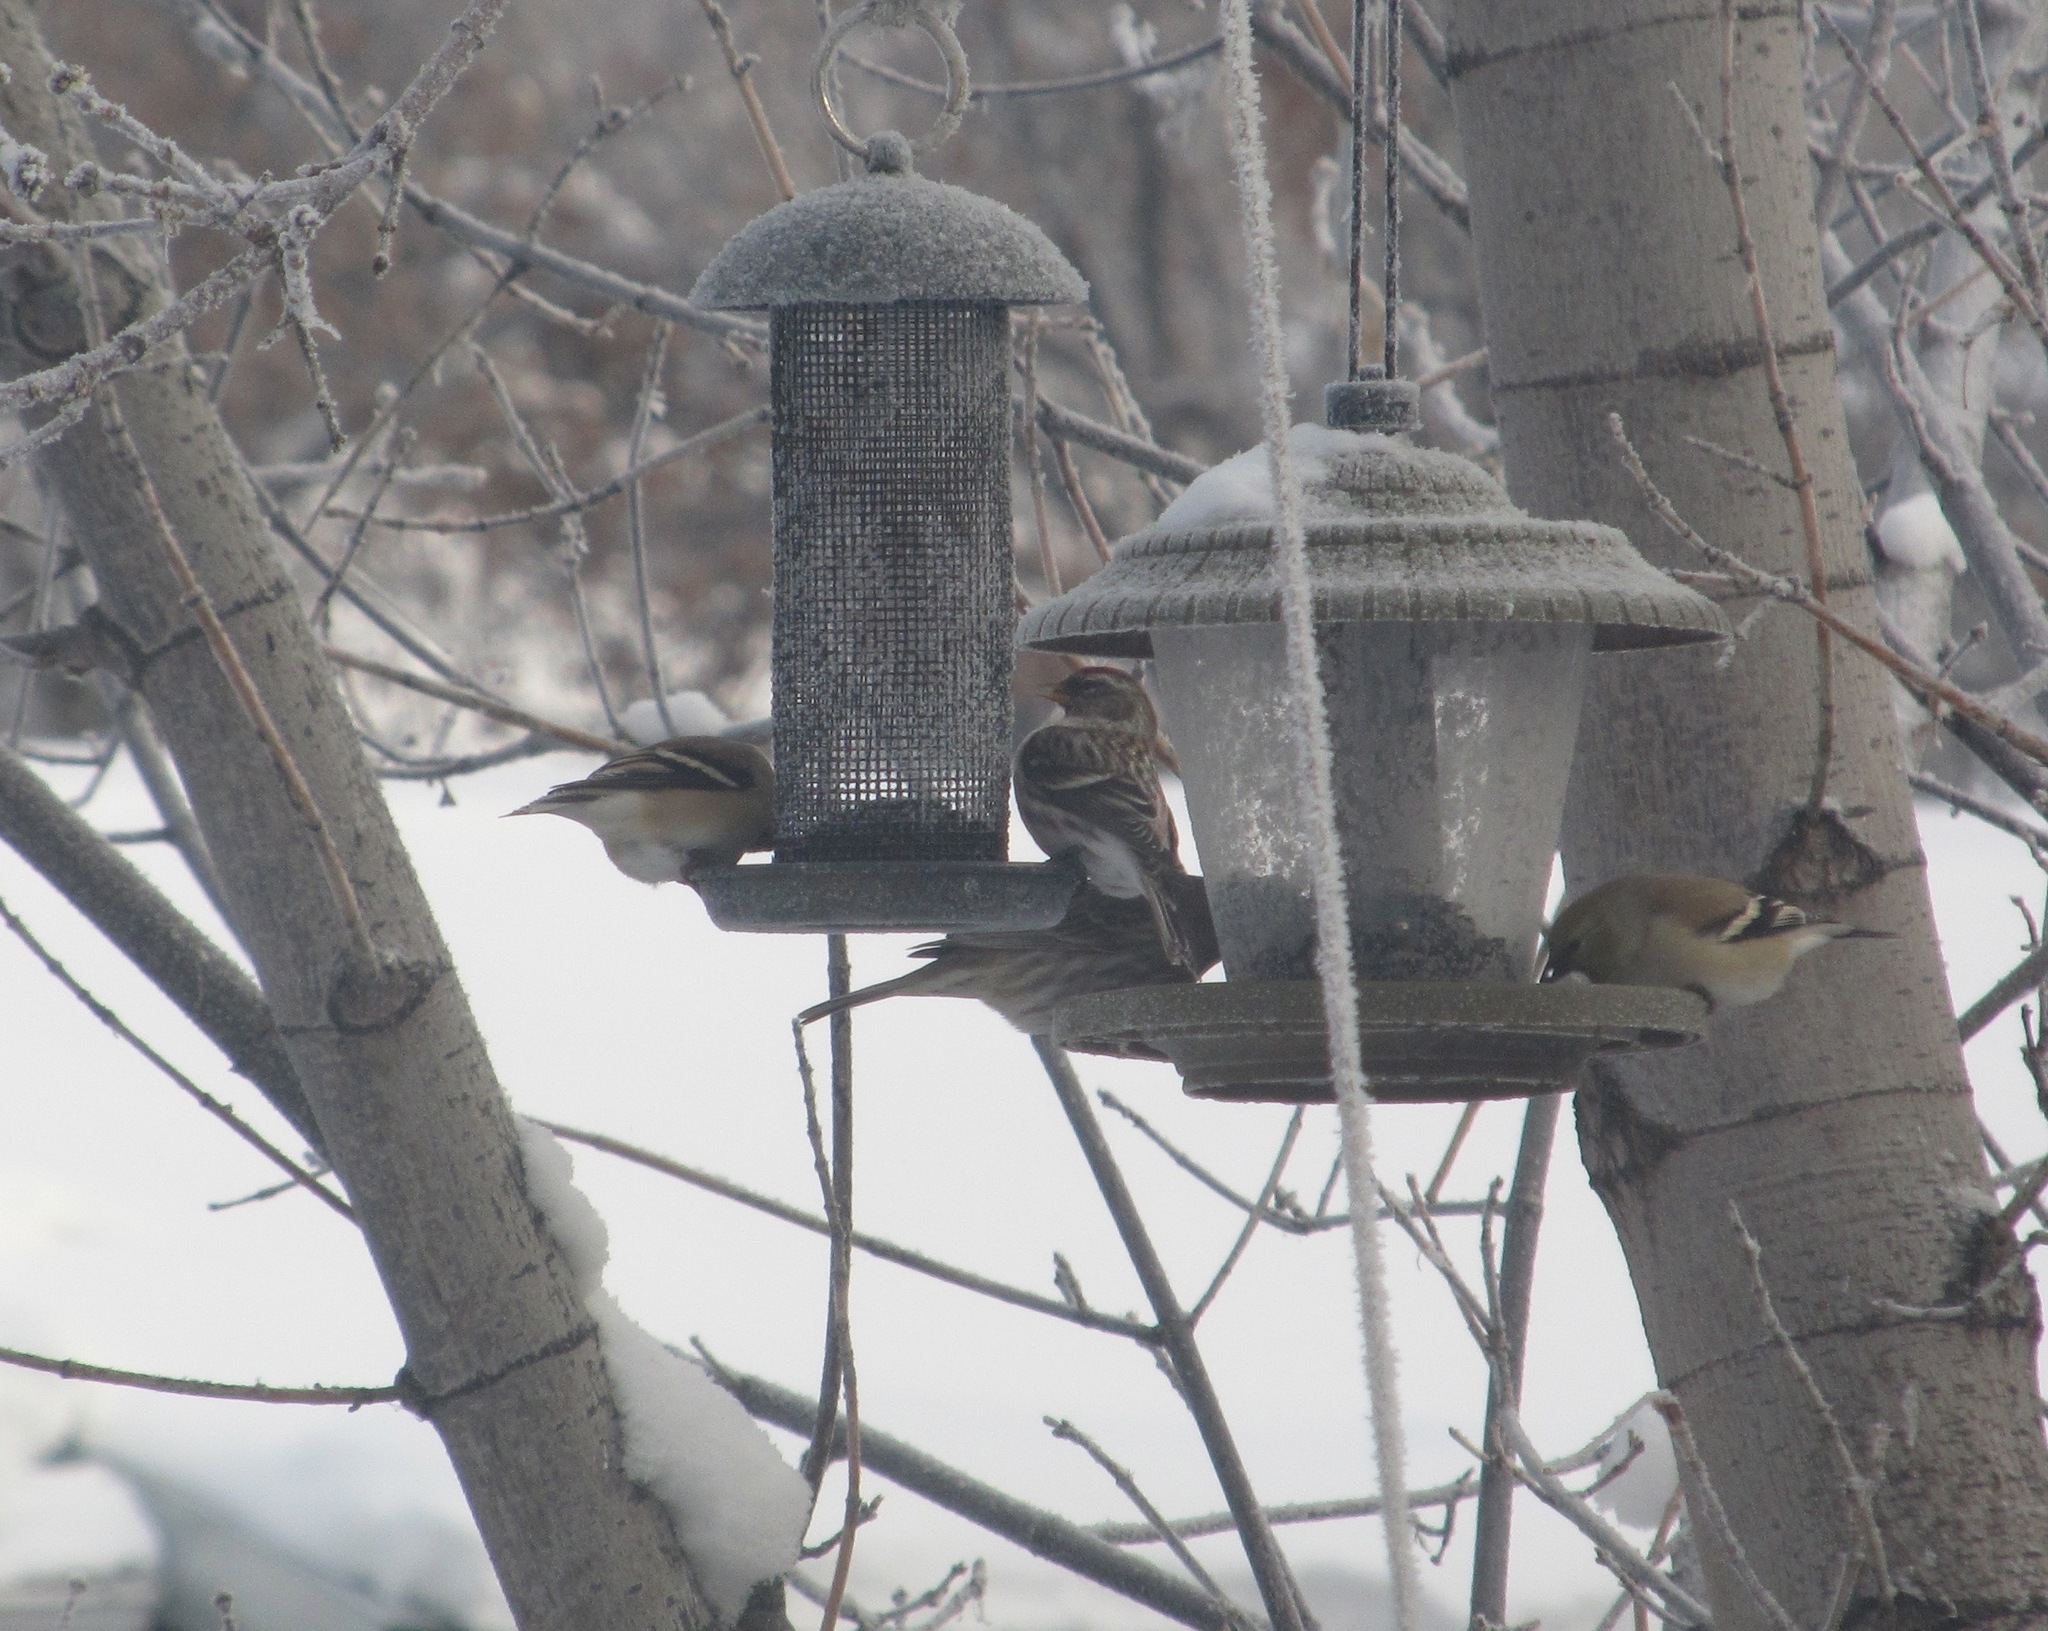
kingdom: Animalia
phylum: Chordata
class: Aves
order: Passeriformes
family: Fringillidae
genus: Acanthis
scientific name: Acanthis flammea
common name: Common redpoll
